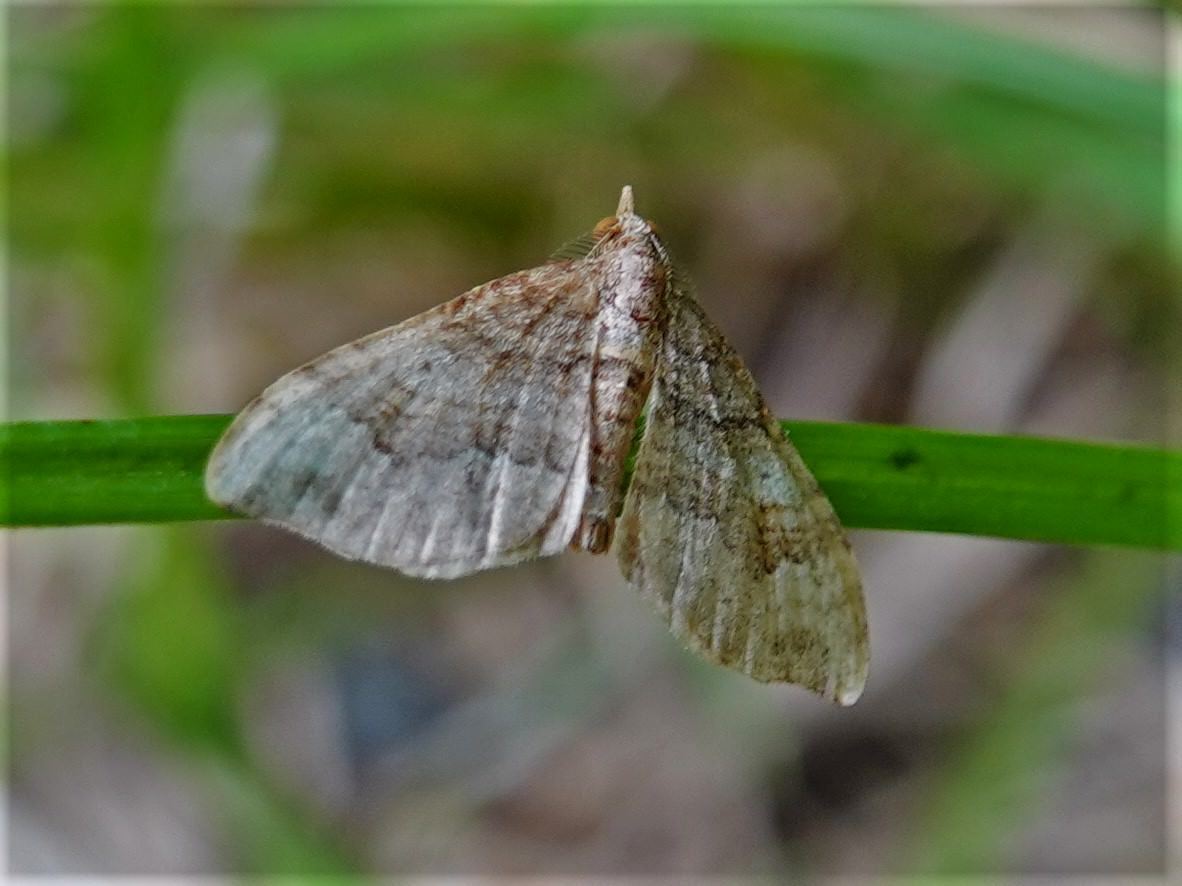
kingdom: Animalia
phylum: Arthropoda
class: Insecta
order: Lepidoptera
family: Geometridae
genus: Homodotis
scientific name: Homodotis megaspilata
